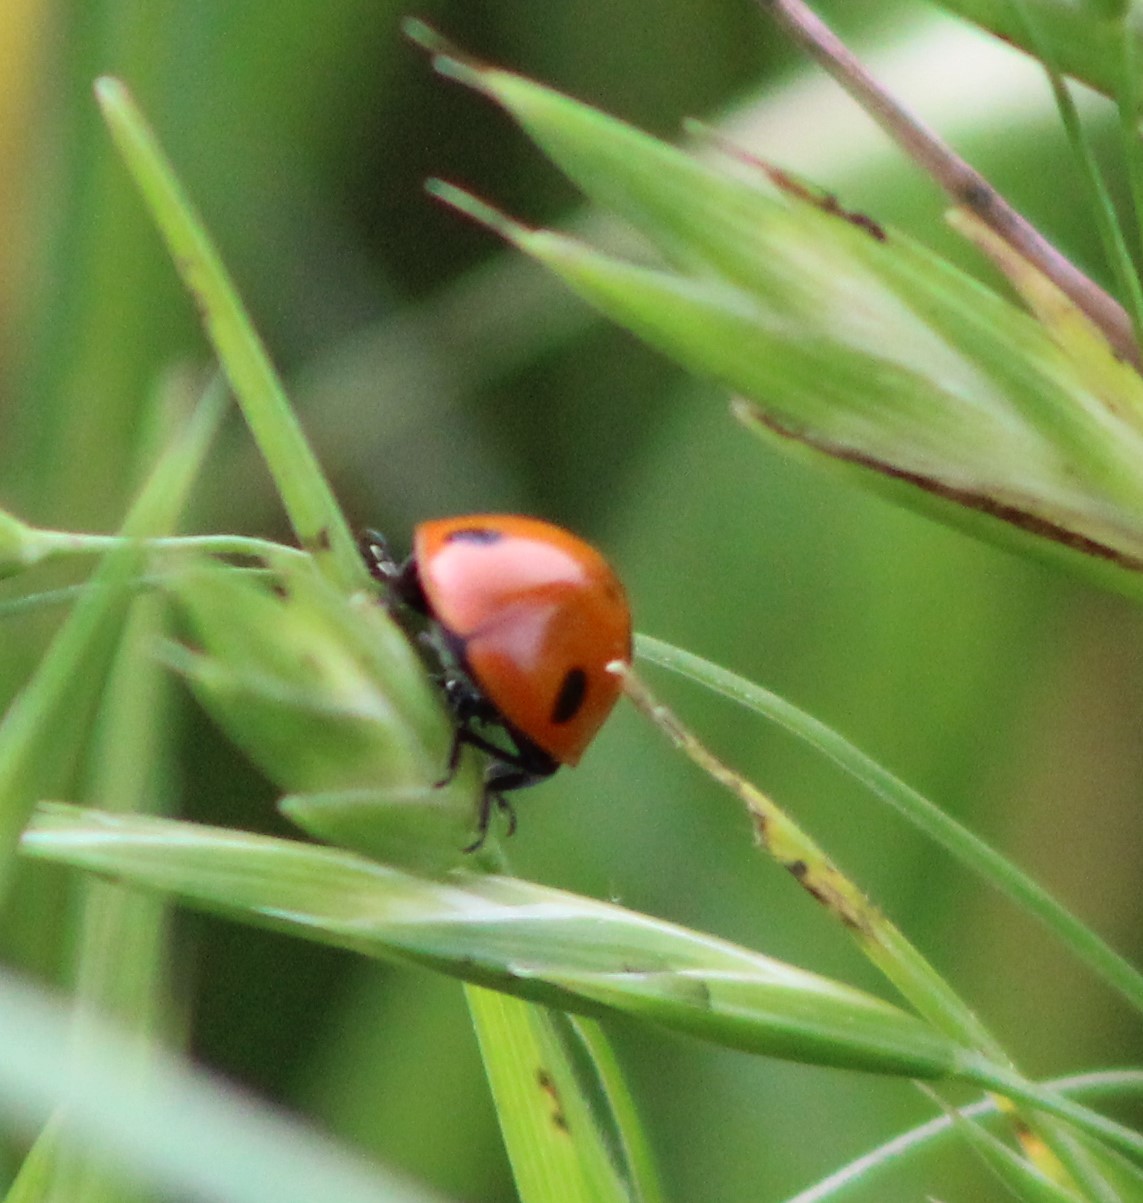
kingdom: Animalia
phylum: Arthropoda
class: Insecta
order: Coleoptera
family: Coccinellidae
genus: Coccinella
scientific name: Coccinella septempunctata
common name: Sevenspotted lady beetle
